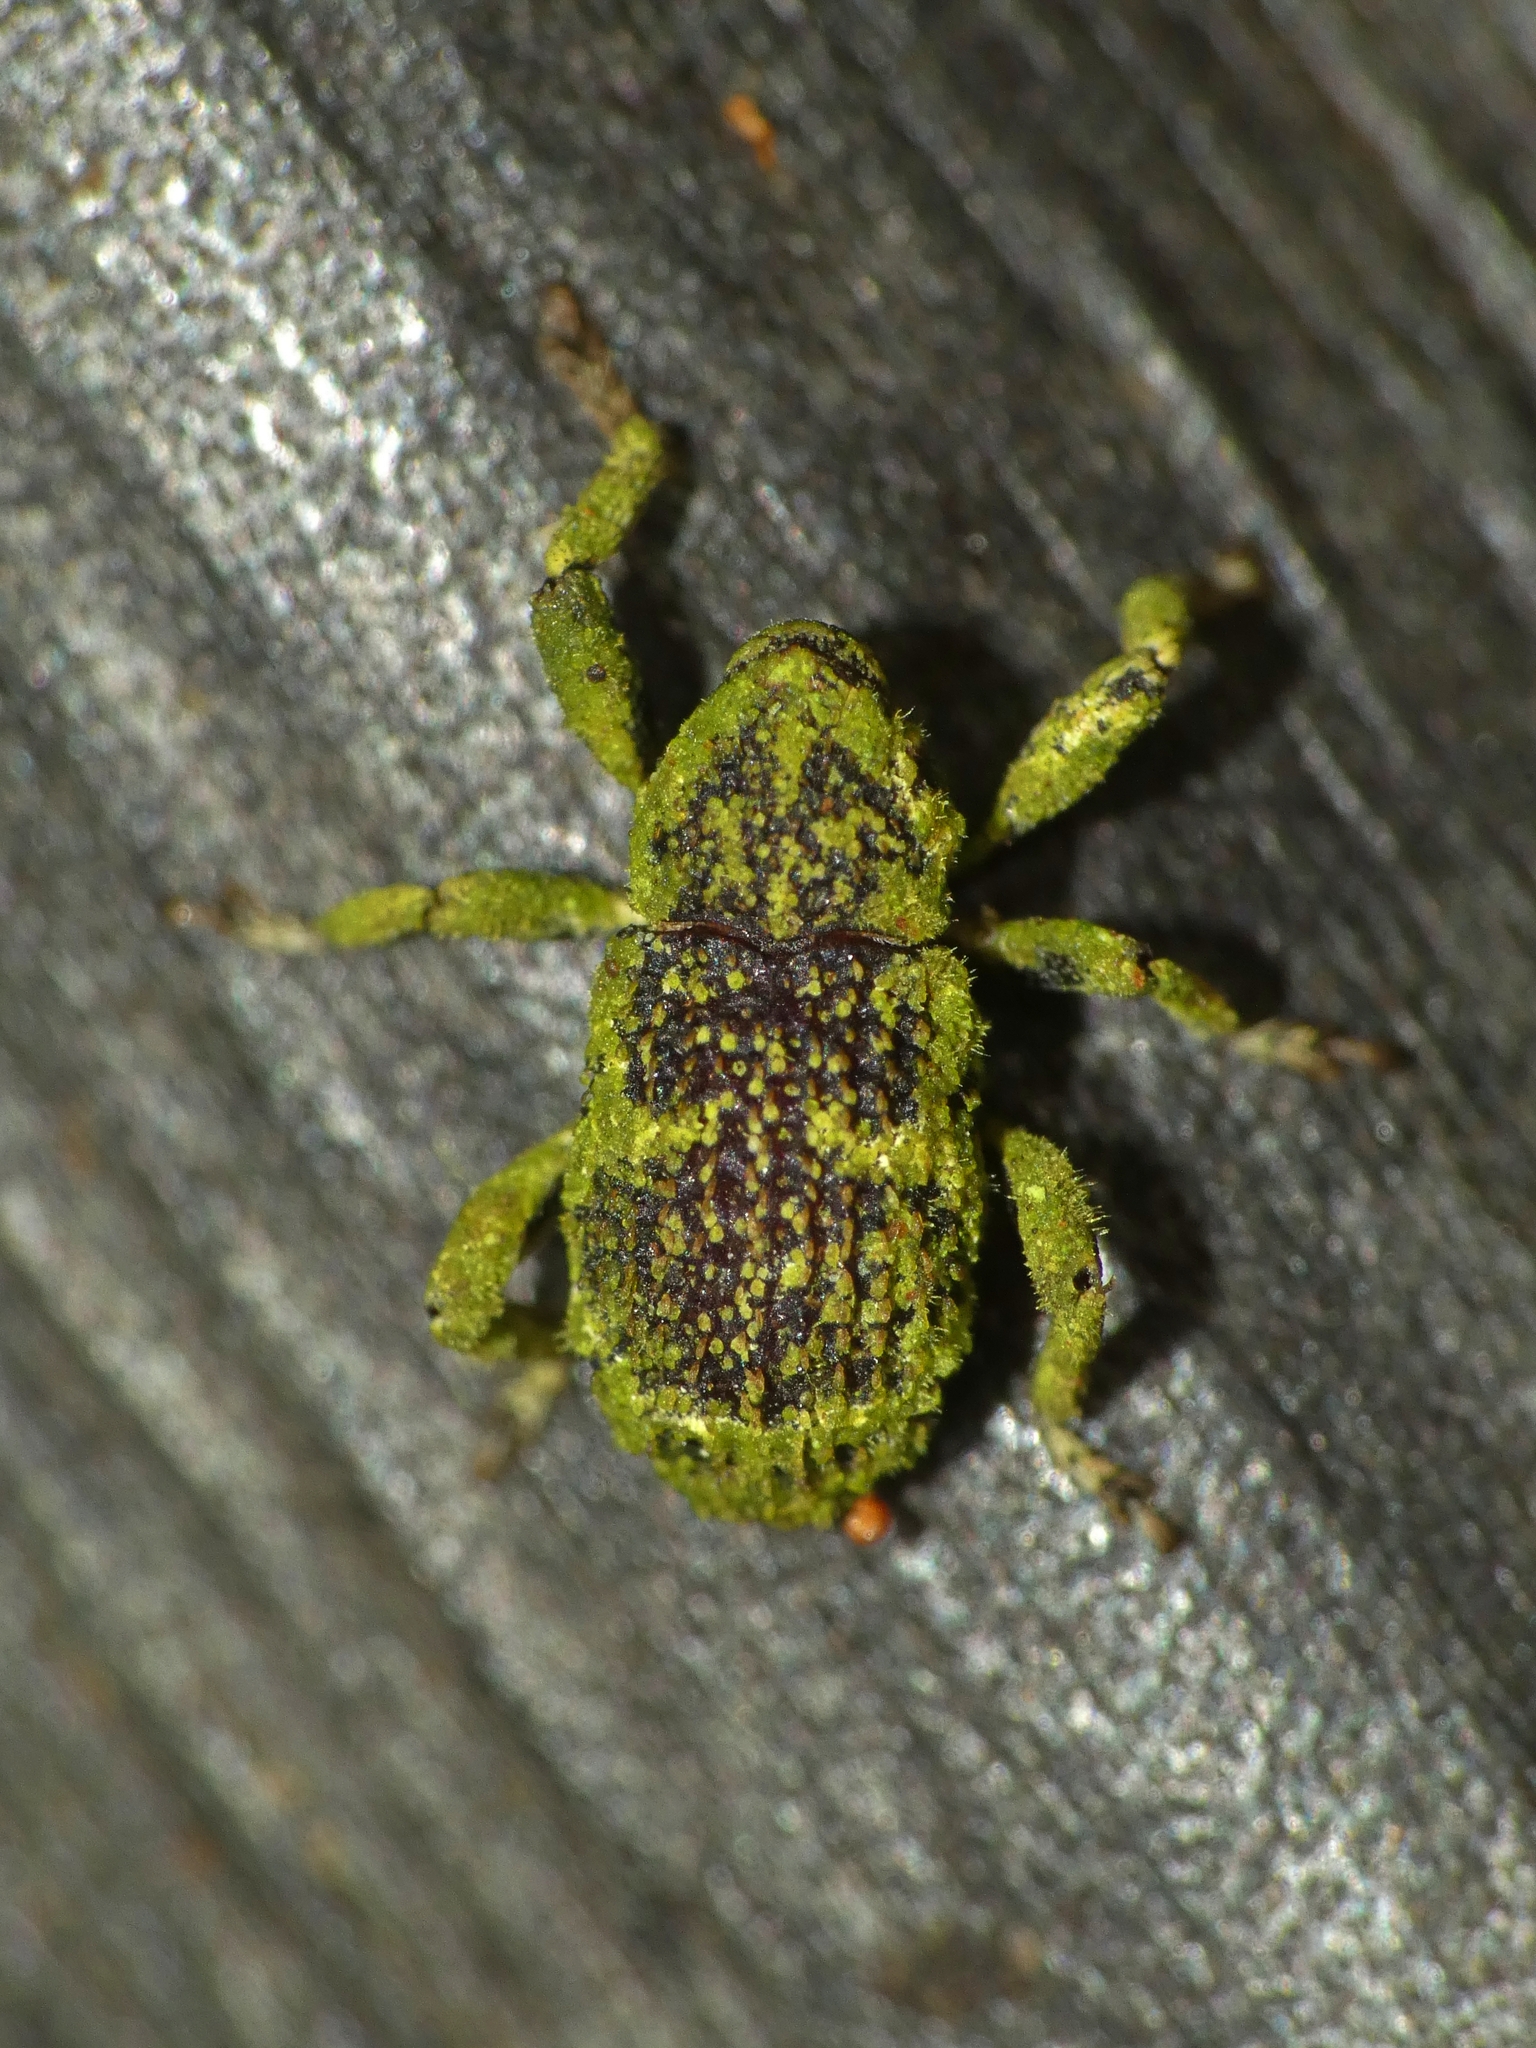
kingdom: Animalia
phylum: Arthropoda
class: Insecta
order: Coleoptera
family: Curculionidae
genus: Pteroporopterus
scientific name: Pteroporopterus lacunosus
